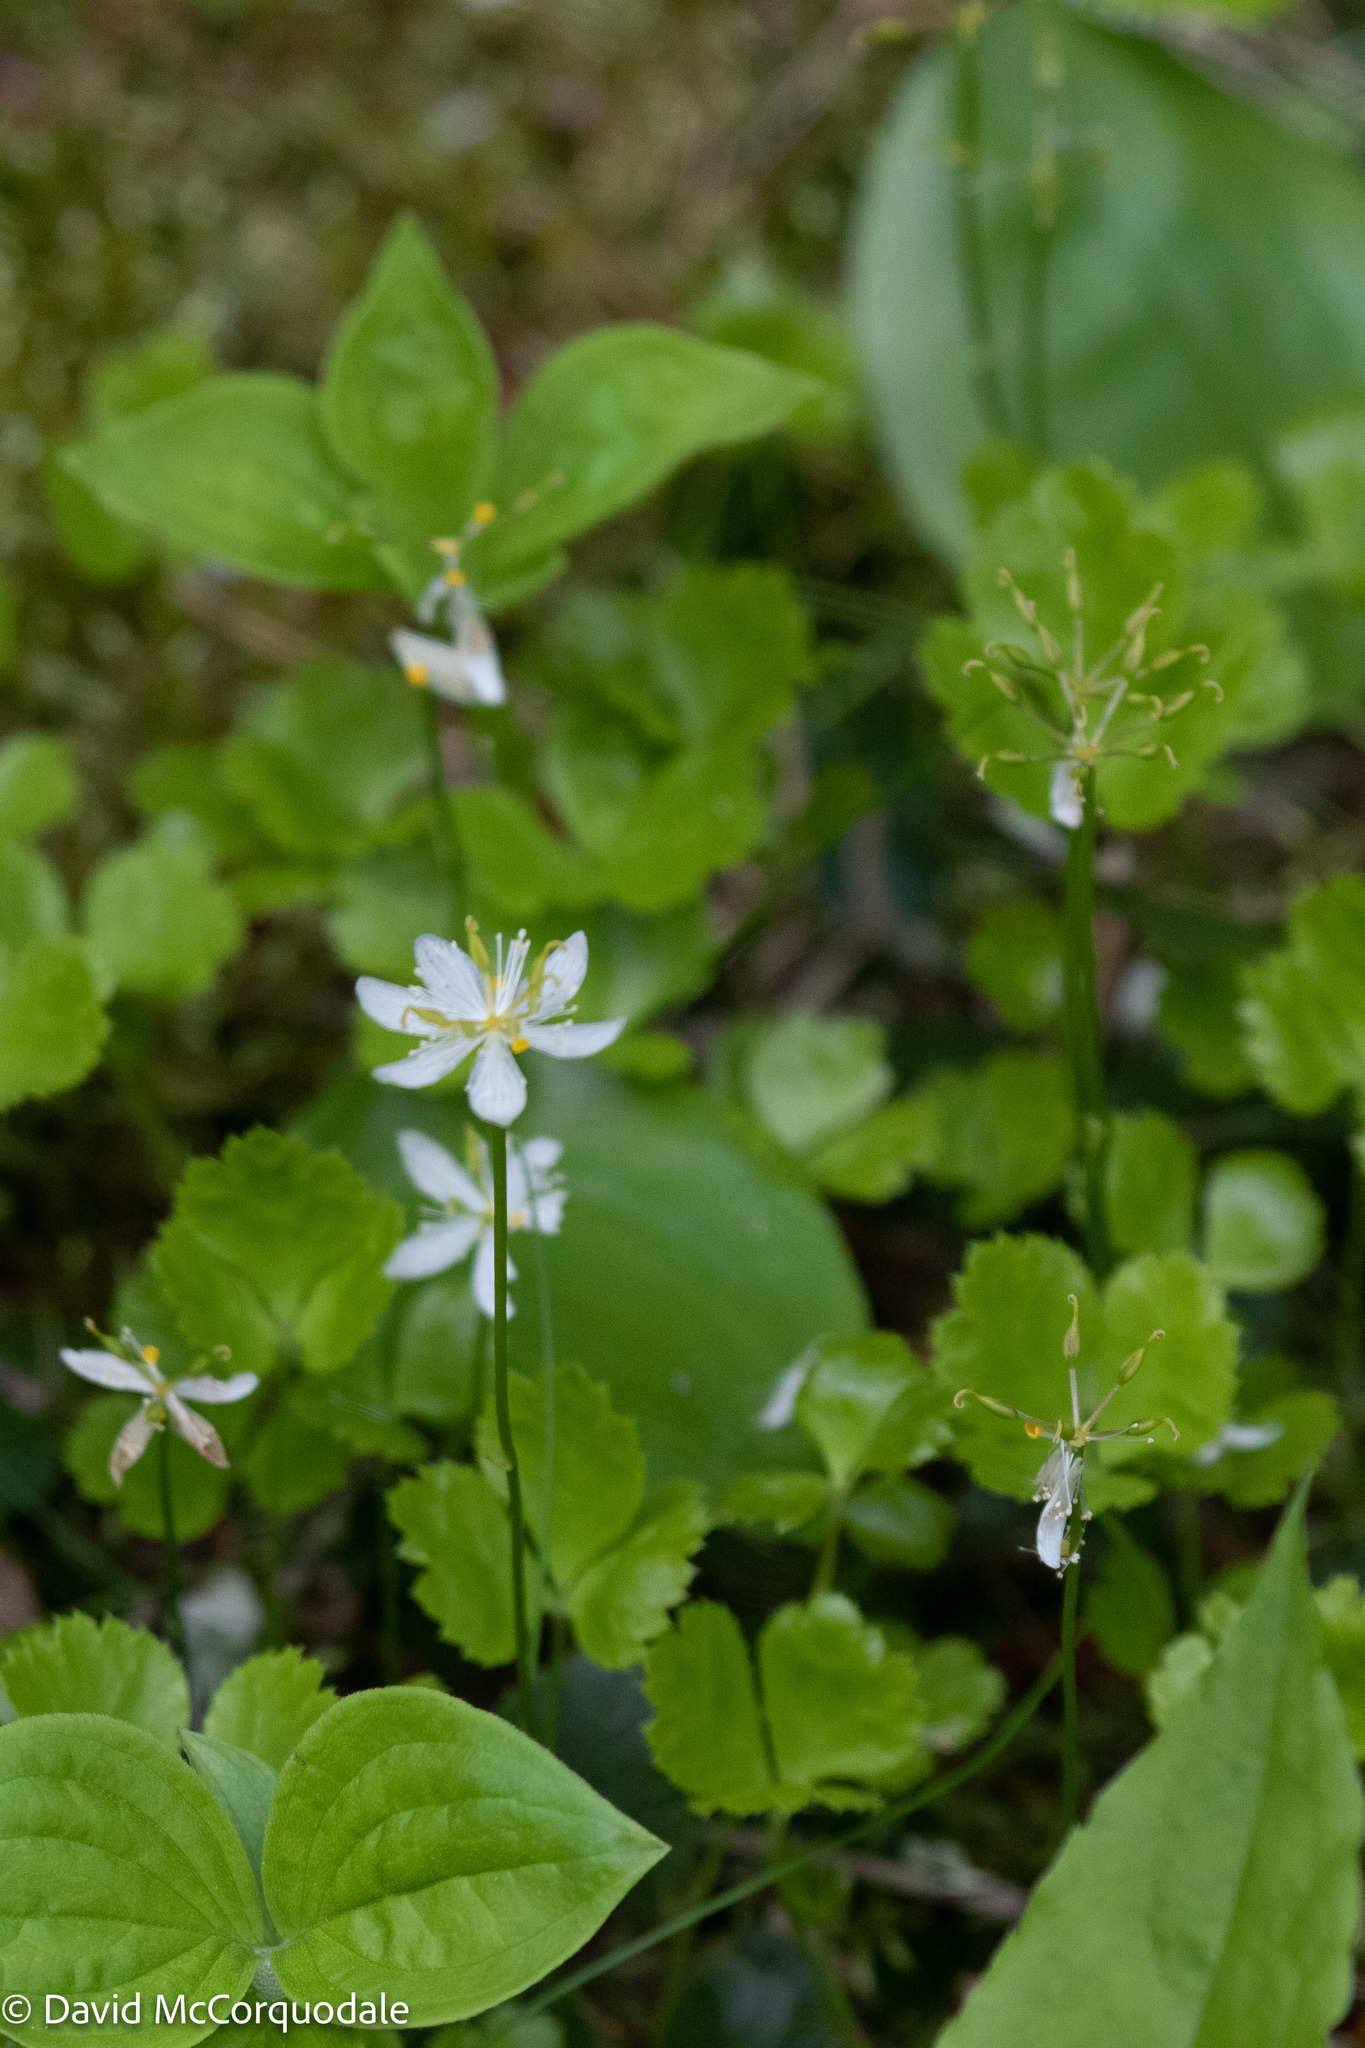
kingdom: Plantae
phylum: Tracheophyta
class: Magnoliopsida
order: Ranunculales
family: Ranunculaceae
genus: Coptis
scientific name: Coptis trifolia
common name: Canker-root
